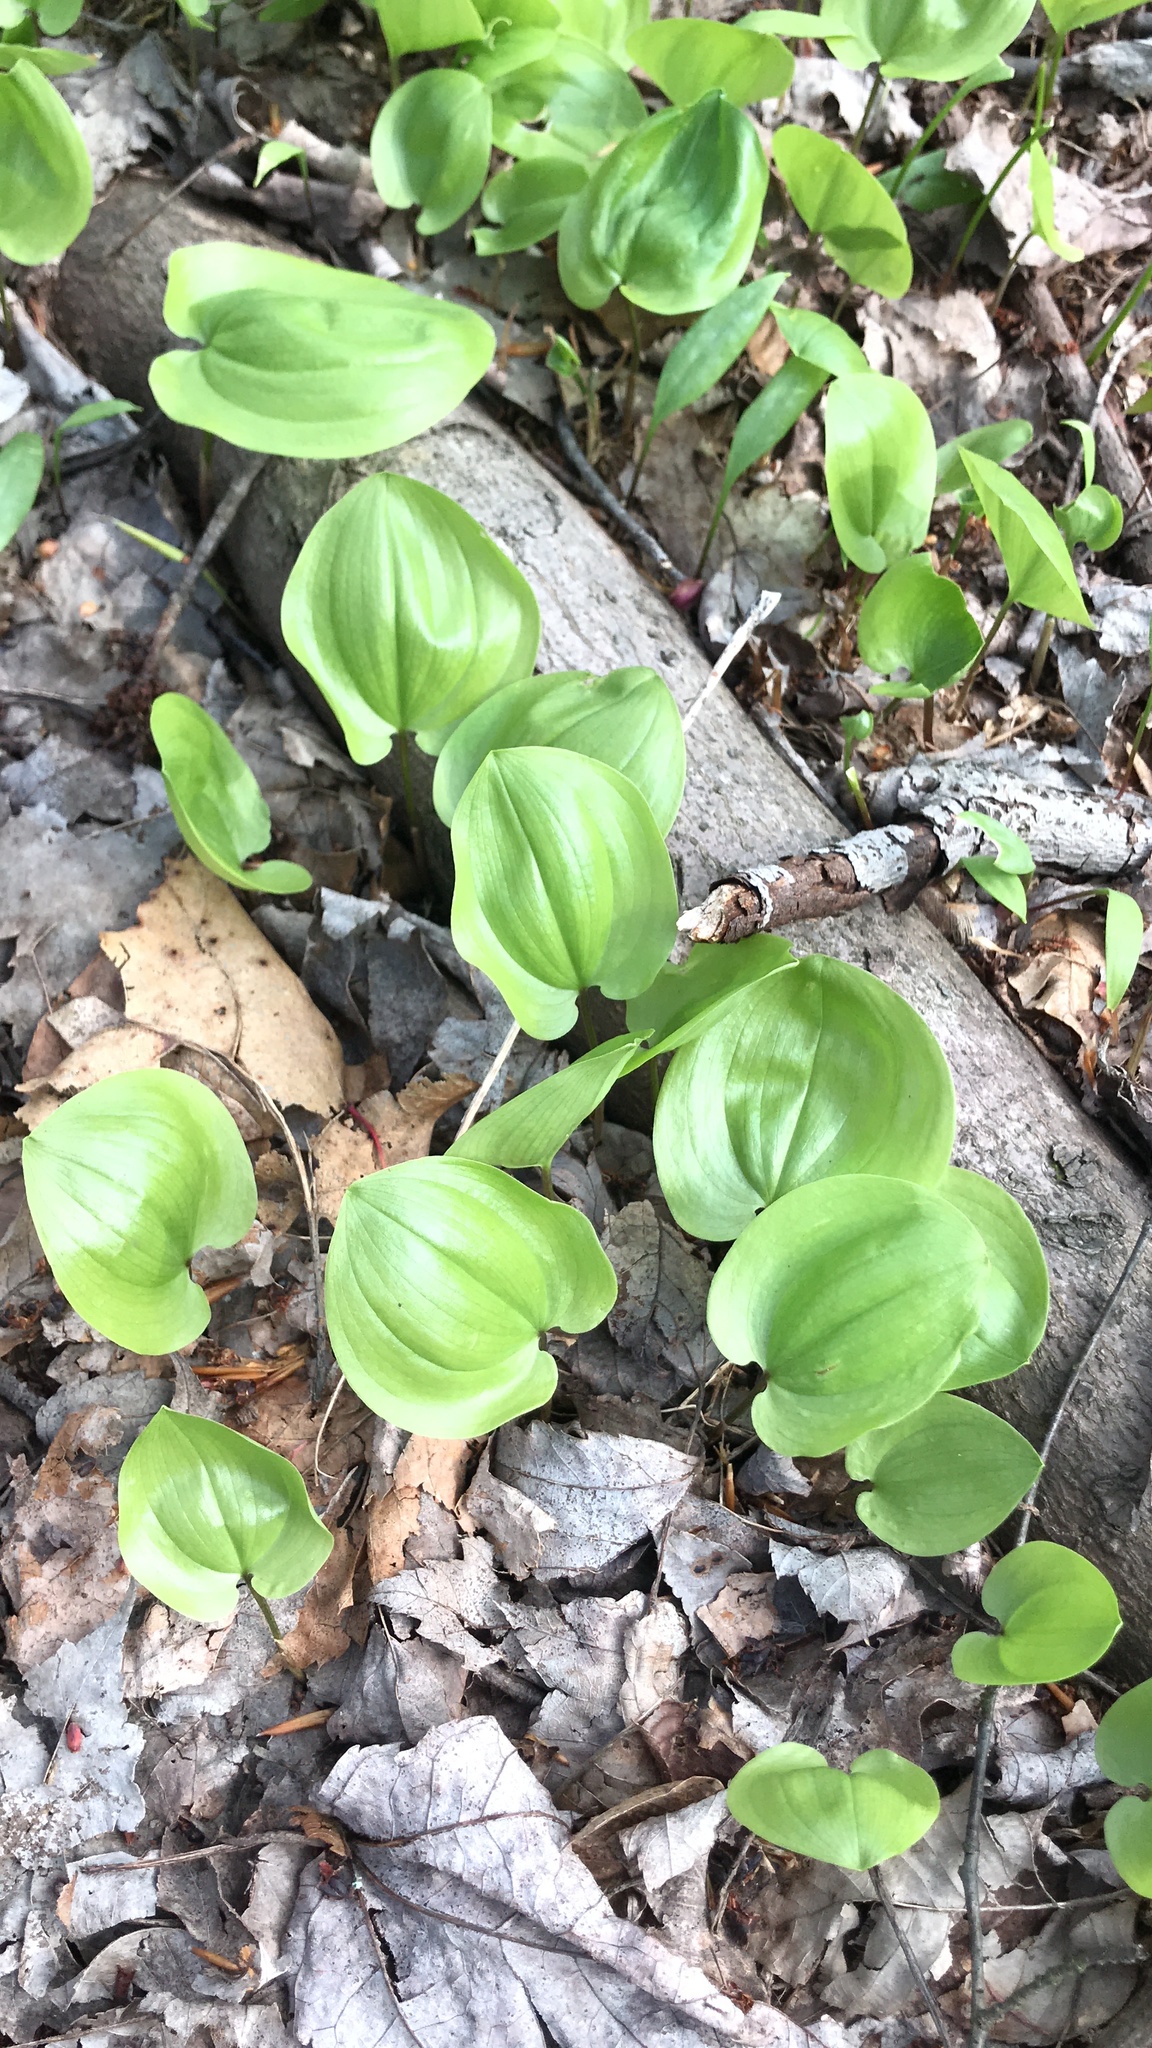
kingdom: Plantae
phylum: Tracheophyta
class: Liliopsida
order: Asparagales
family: Asparagaceae
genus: Maianthemum
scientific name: Maianthemum canadense
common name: False lily-of-the-valley
